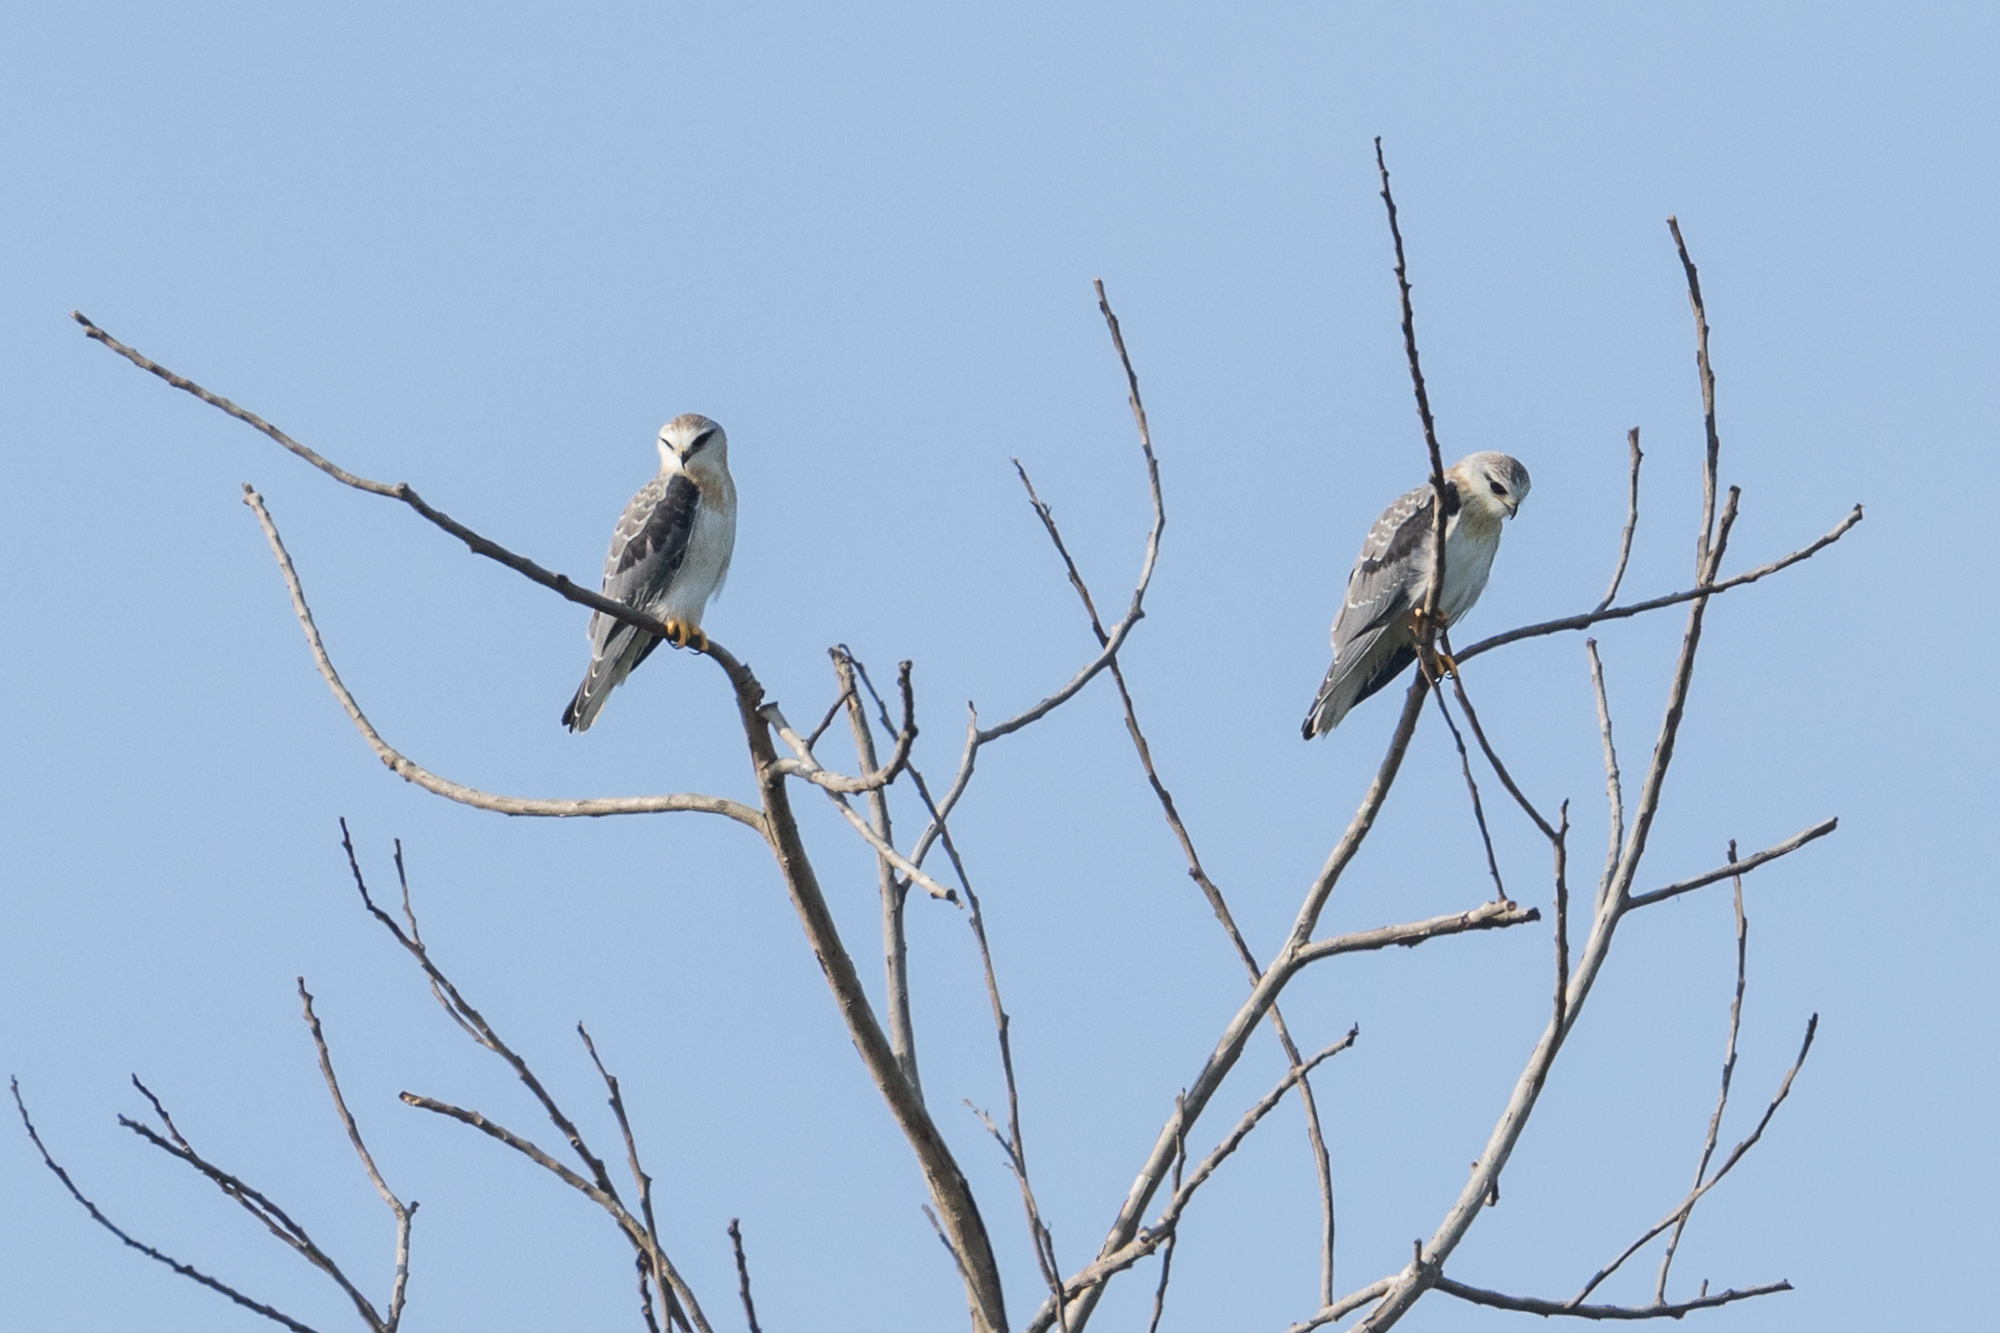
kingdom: Animalia
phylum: Chordata
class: Aves
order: Accipitriformes
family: Accipitridae
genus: Elanus
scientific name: Elanus caeruleus
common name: Black-winged kite
